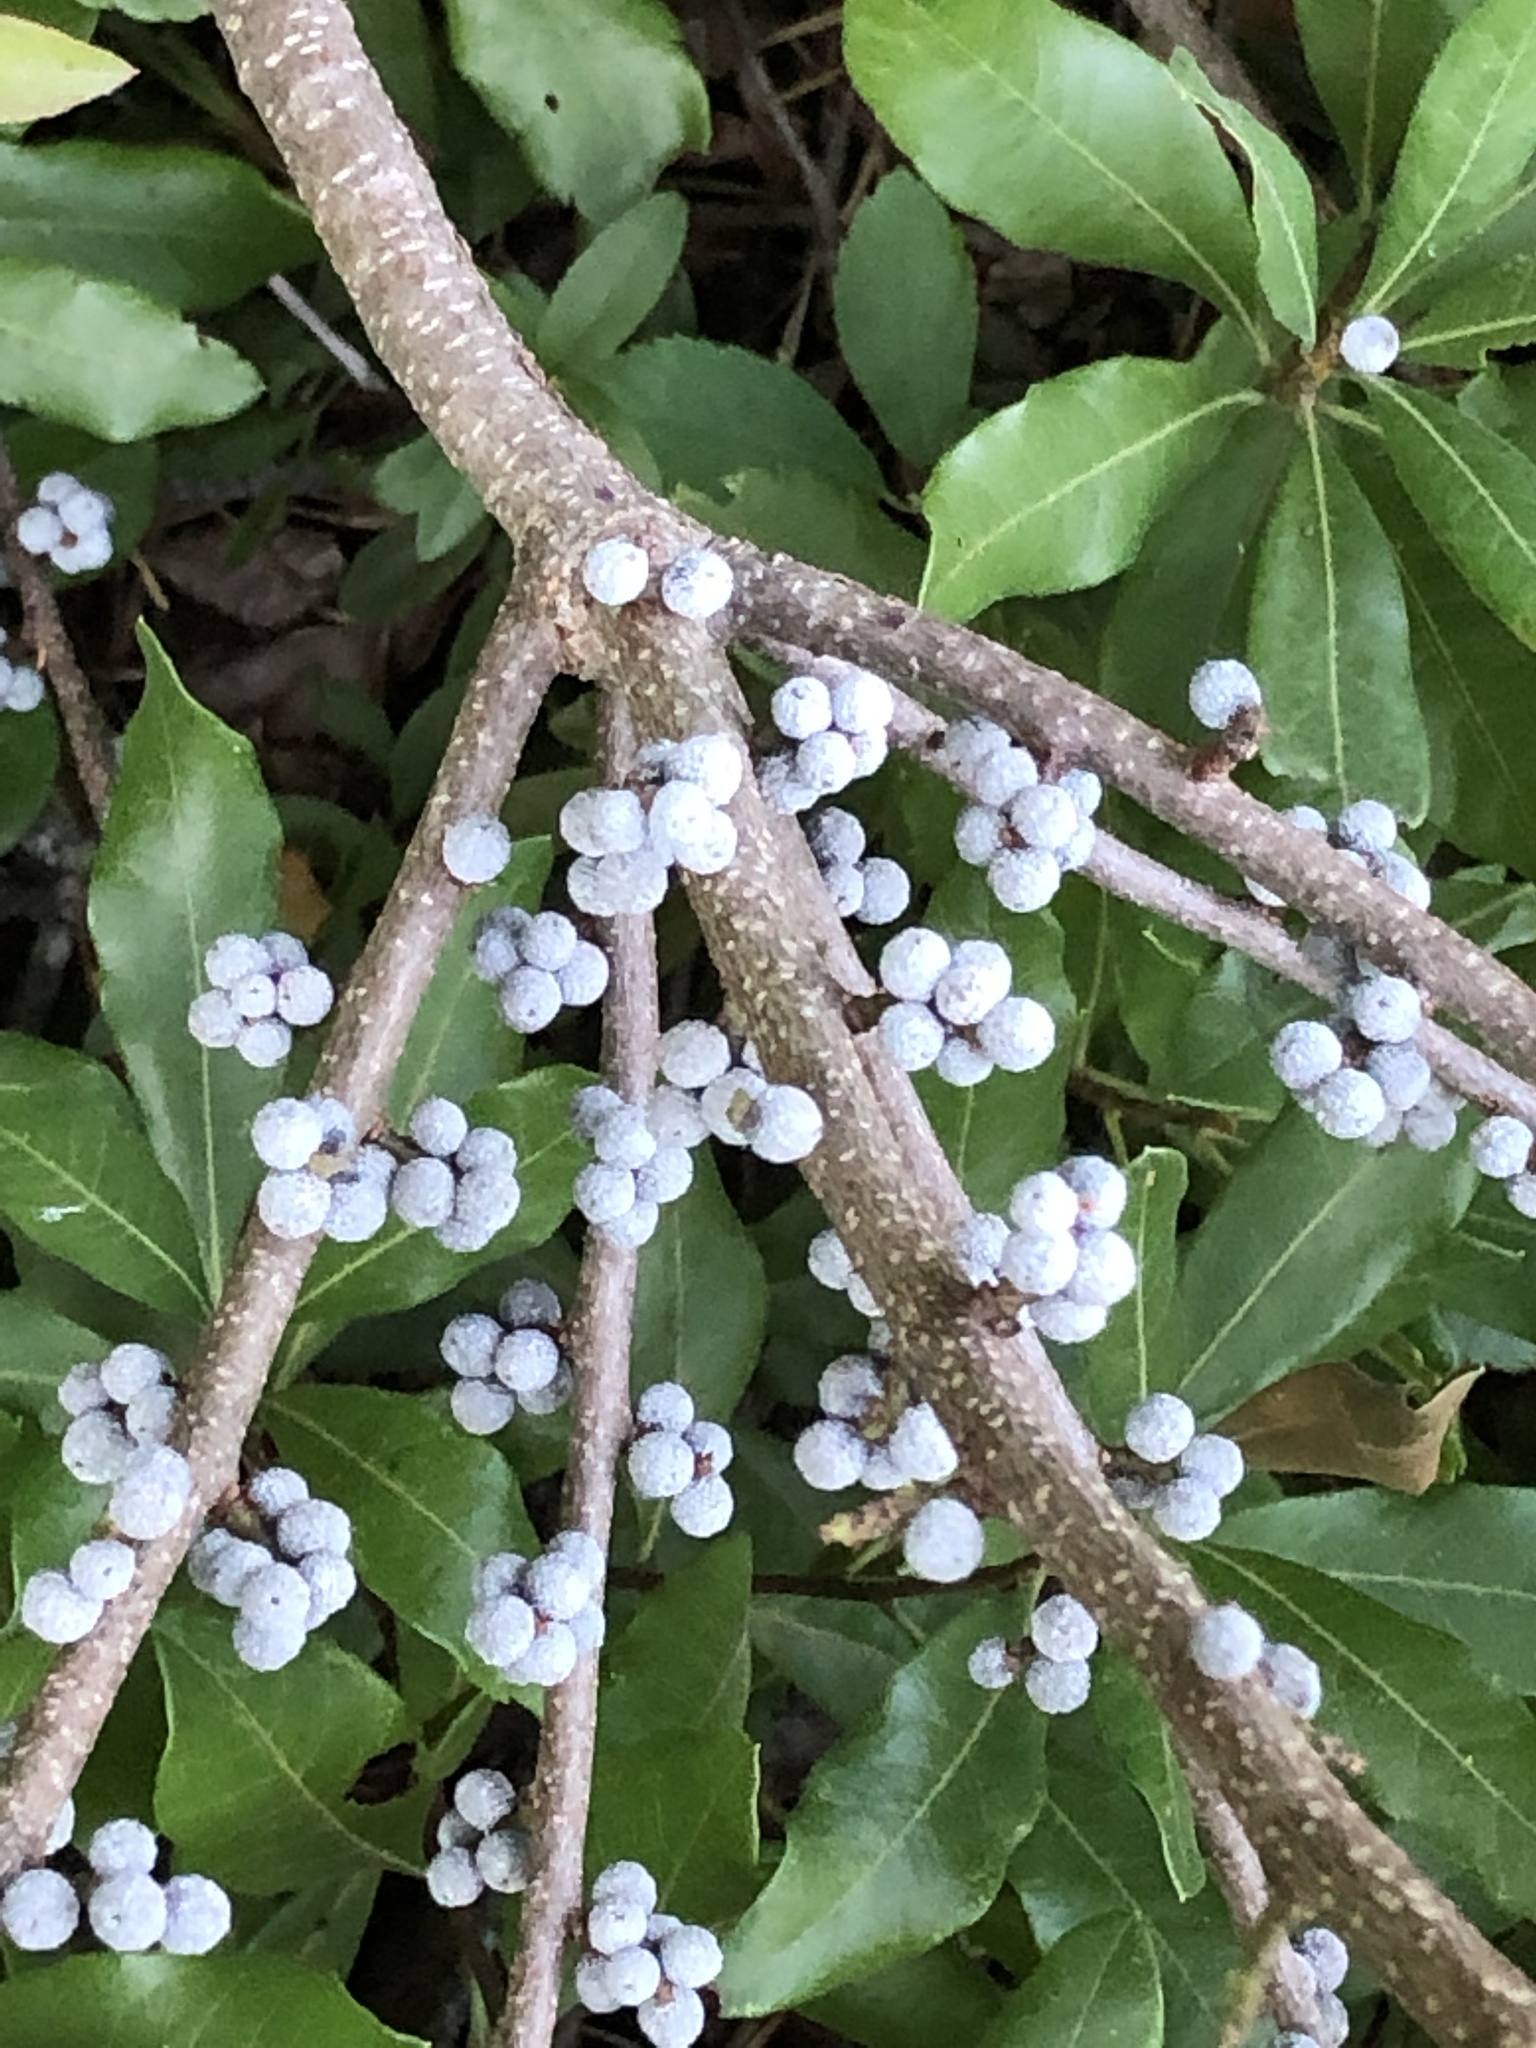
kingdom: Plantae
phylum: Tracheophyta
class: Magnoliopsida
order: Fagales
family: Myricaceae
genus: Morella
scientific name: Morella pensylvanica
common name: Northern bayberry
